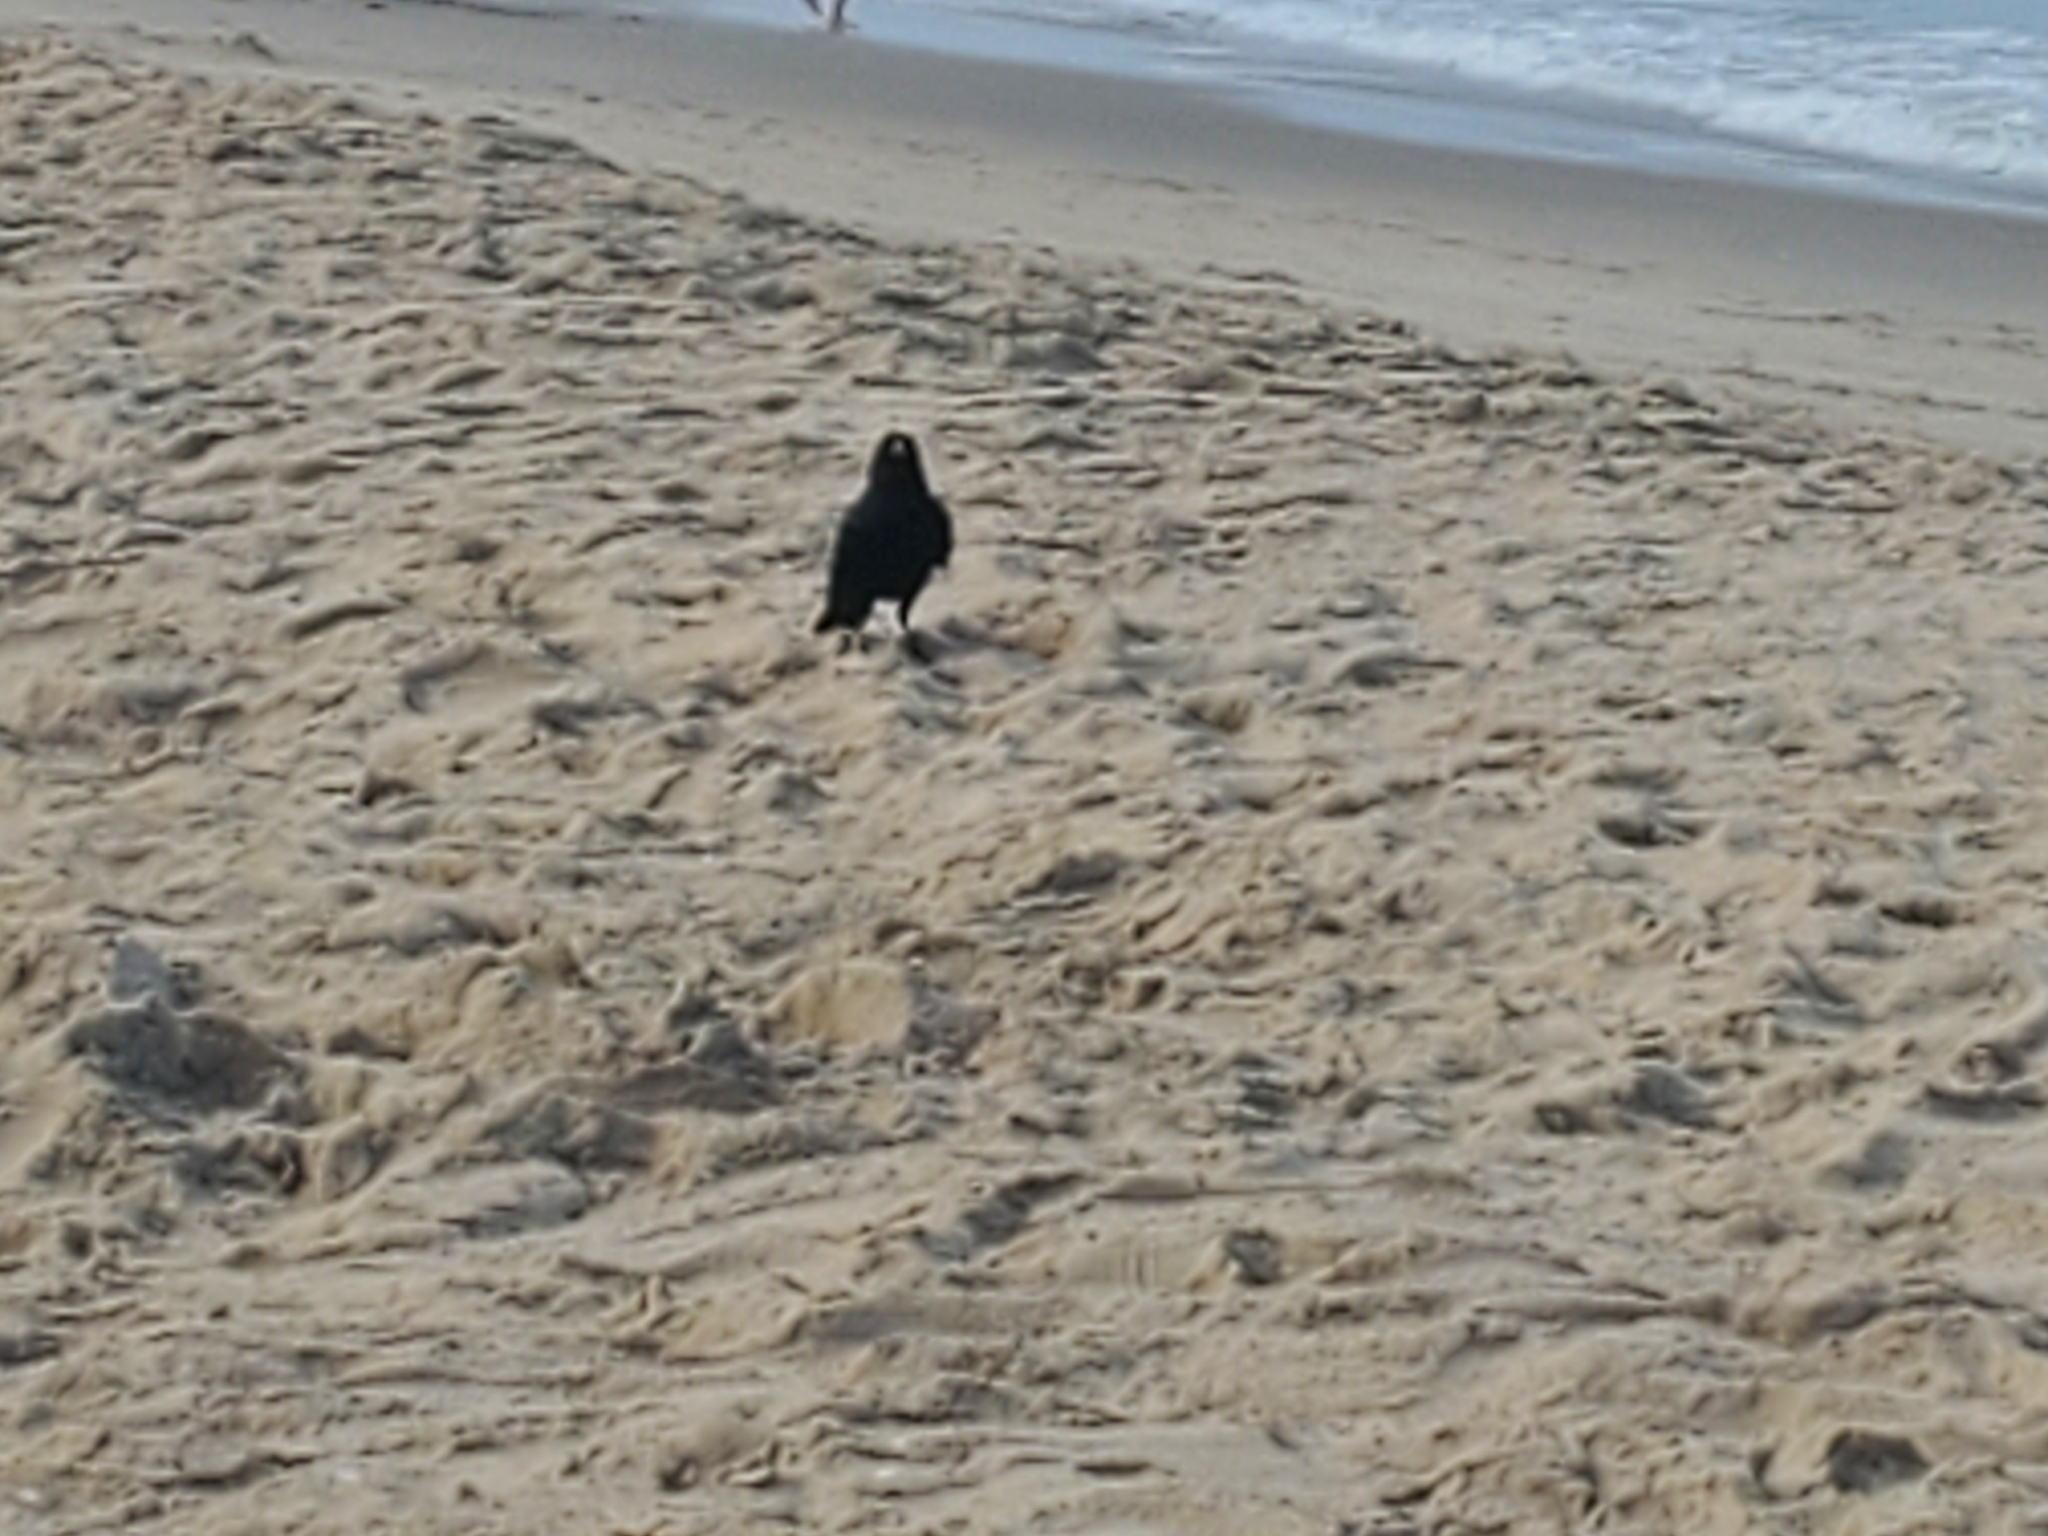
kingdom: Animalia
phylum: Chordata
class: Aves
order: Passeriformes
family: Corvidae
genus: Corvus
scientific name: Corvus ossifragus
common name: Fish crow
